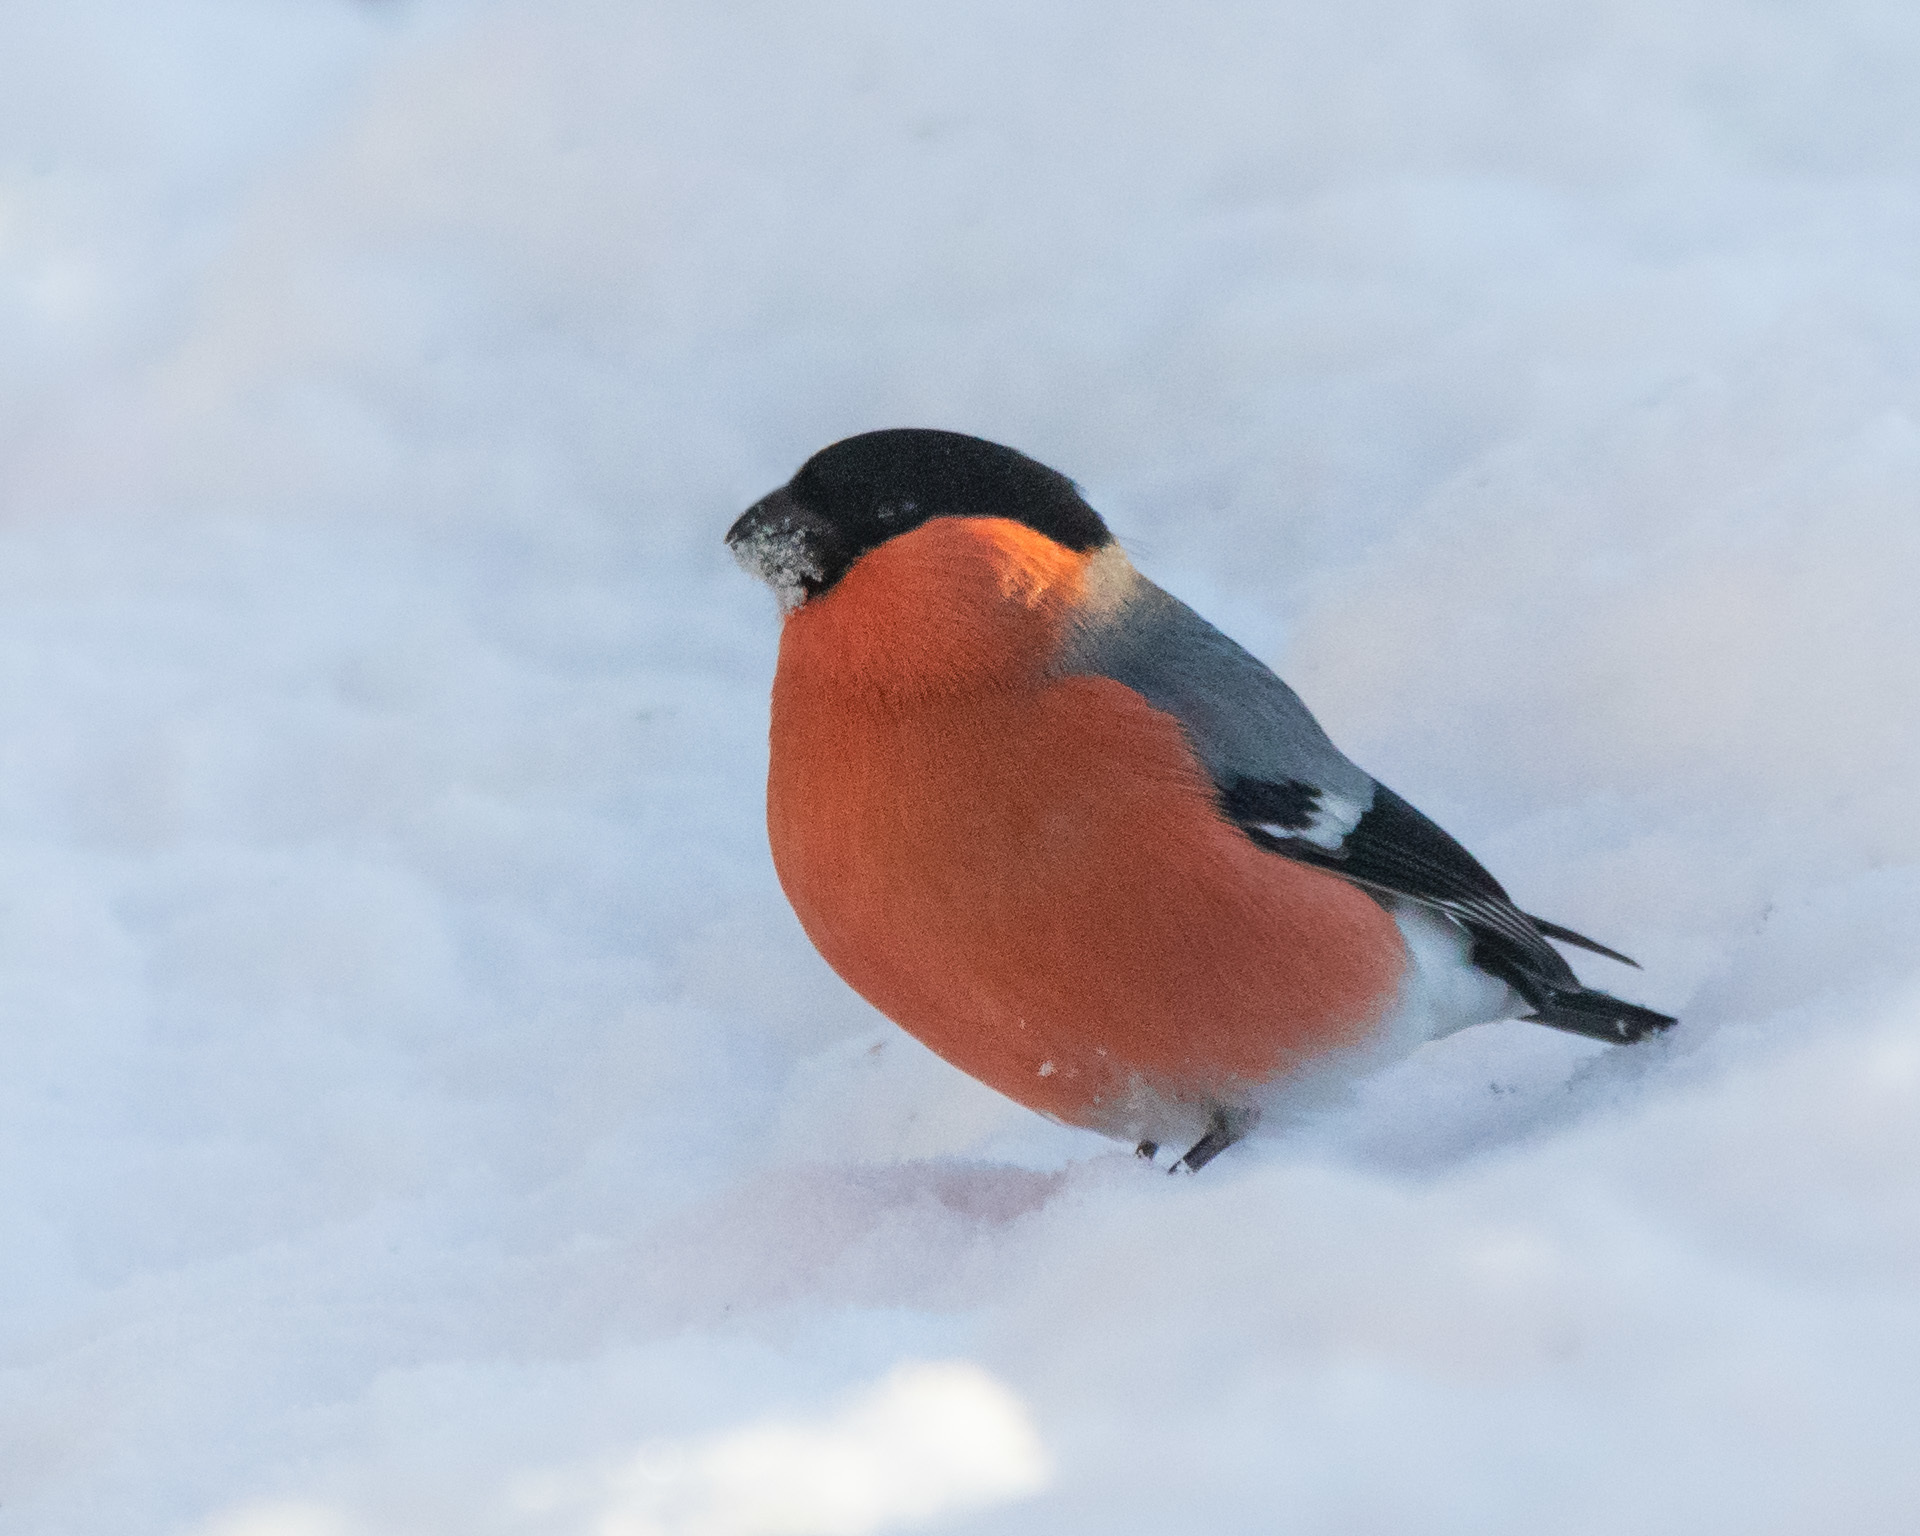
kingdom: Animalia
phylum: Chordata
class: Aves
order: Passeriformes
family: Fringillidae
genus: Pyrrhula
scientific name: Pyrrhula pyrrhula
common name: Eurasian bullfinch
